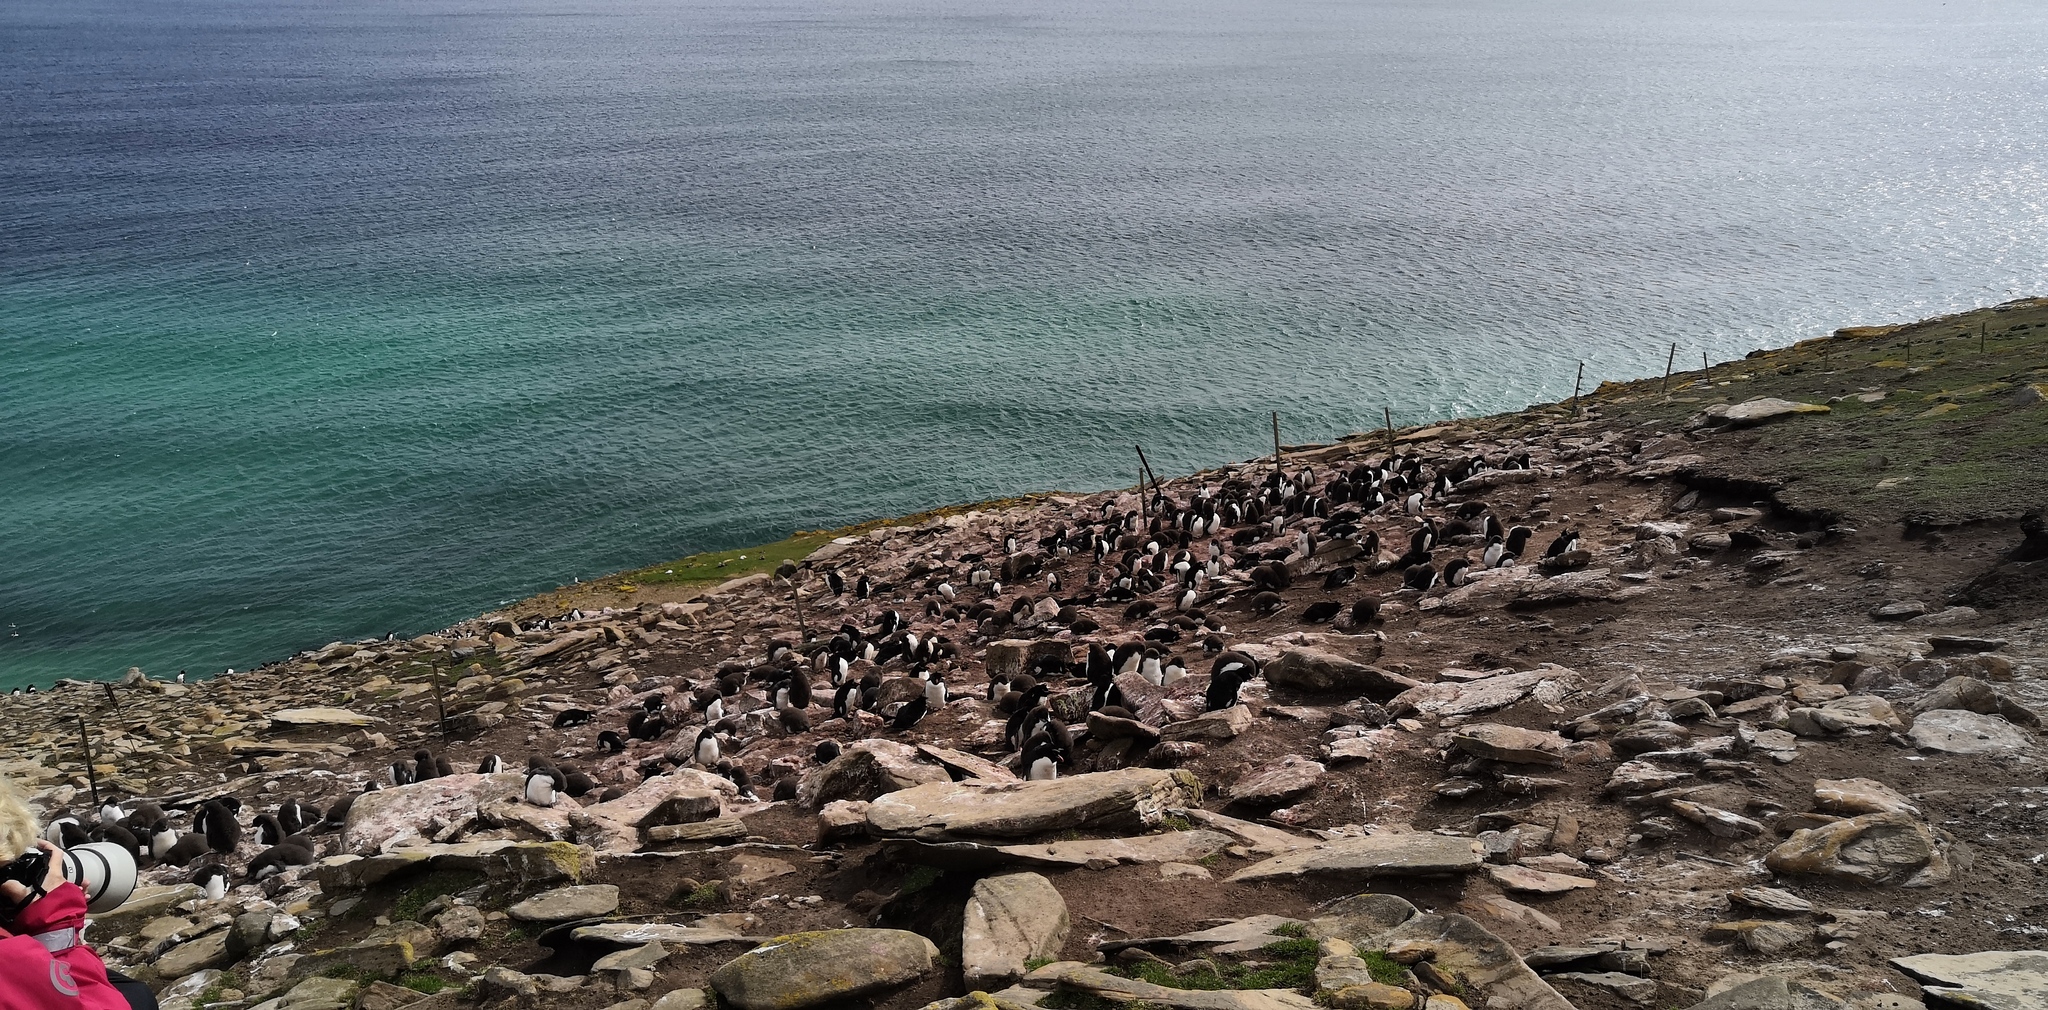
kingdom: Animalia
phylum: Chordata
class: Aves
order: Sphenisciformes
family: Spheniscidae
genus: Eudyptes
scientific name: Eudyptes chrysocome
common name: Southern rockhopper penguin
